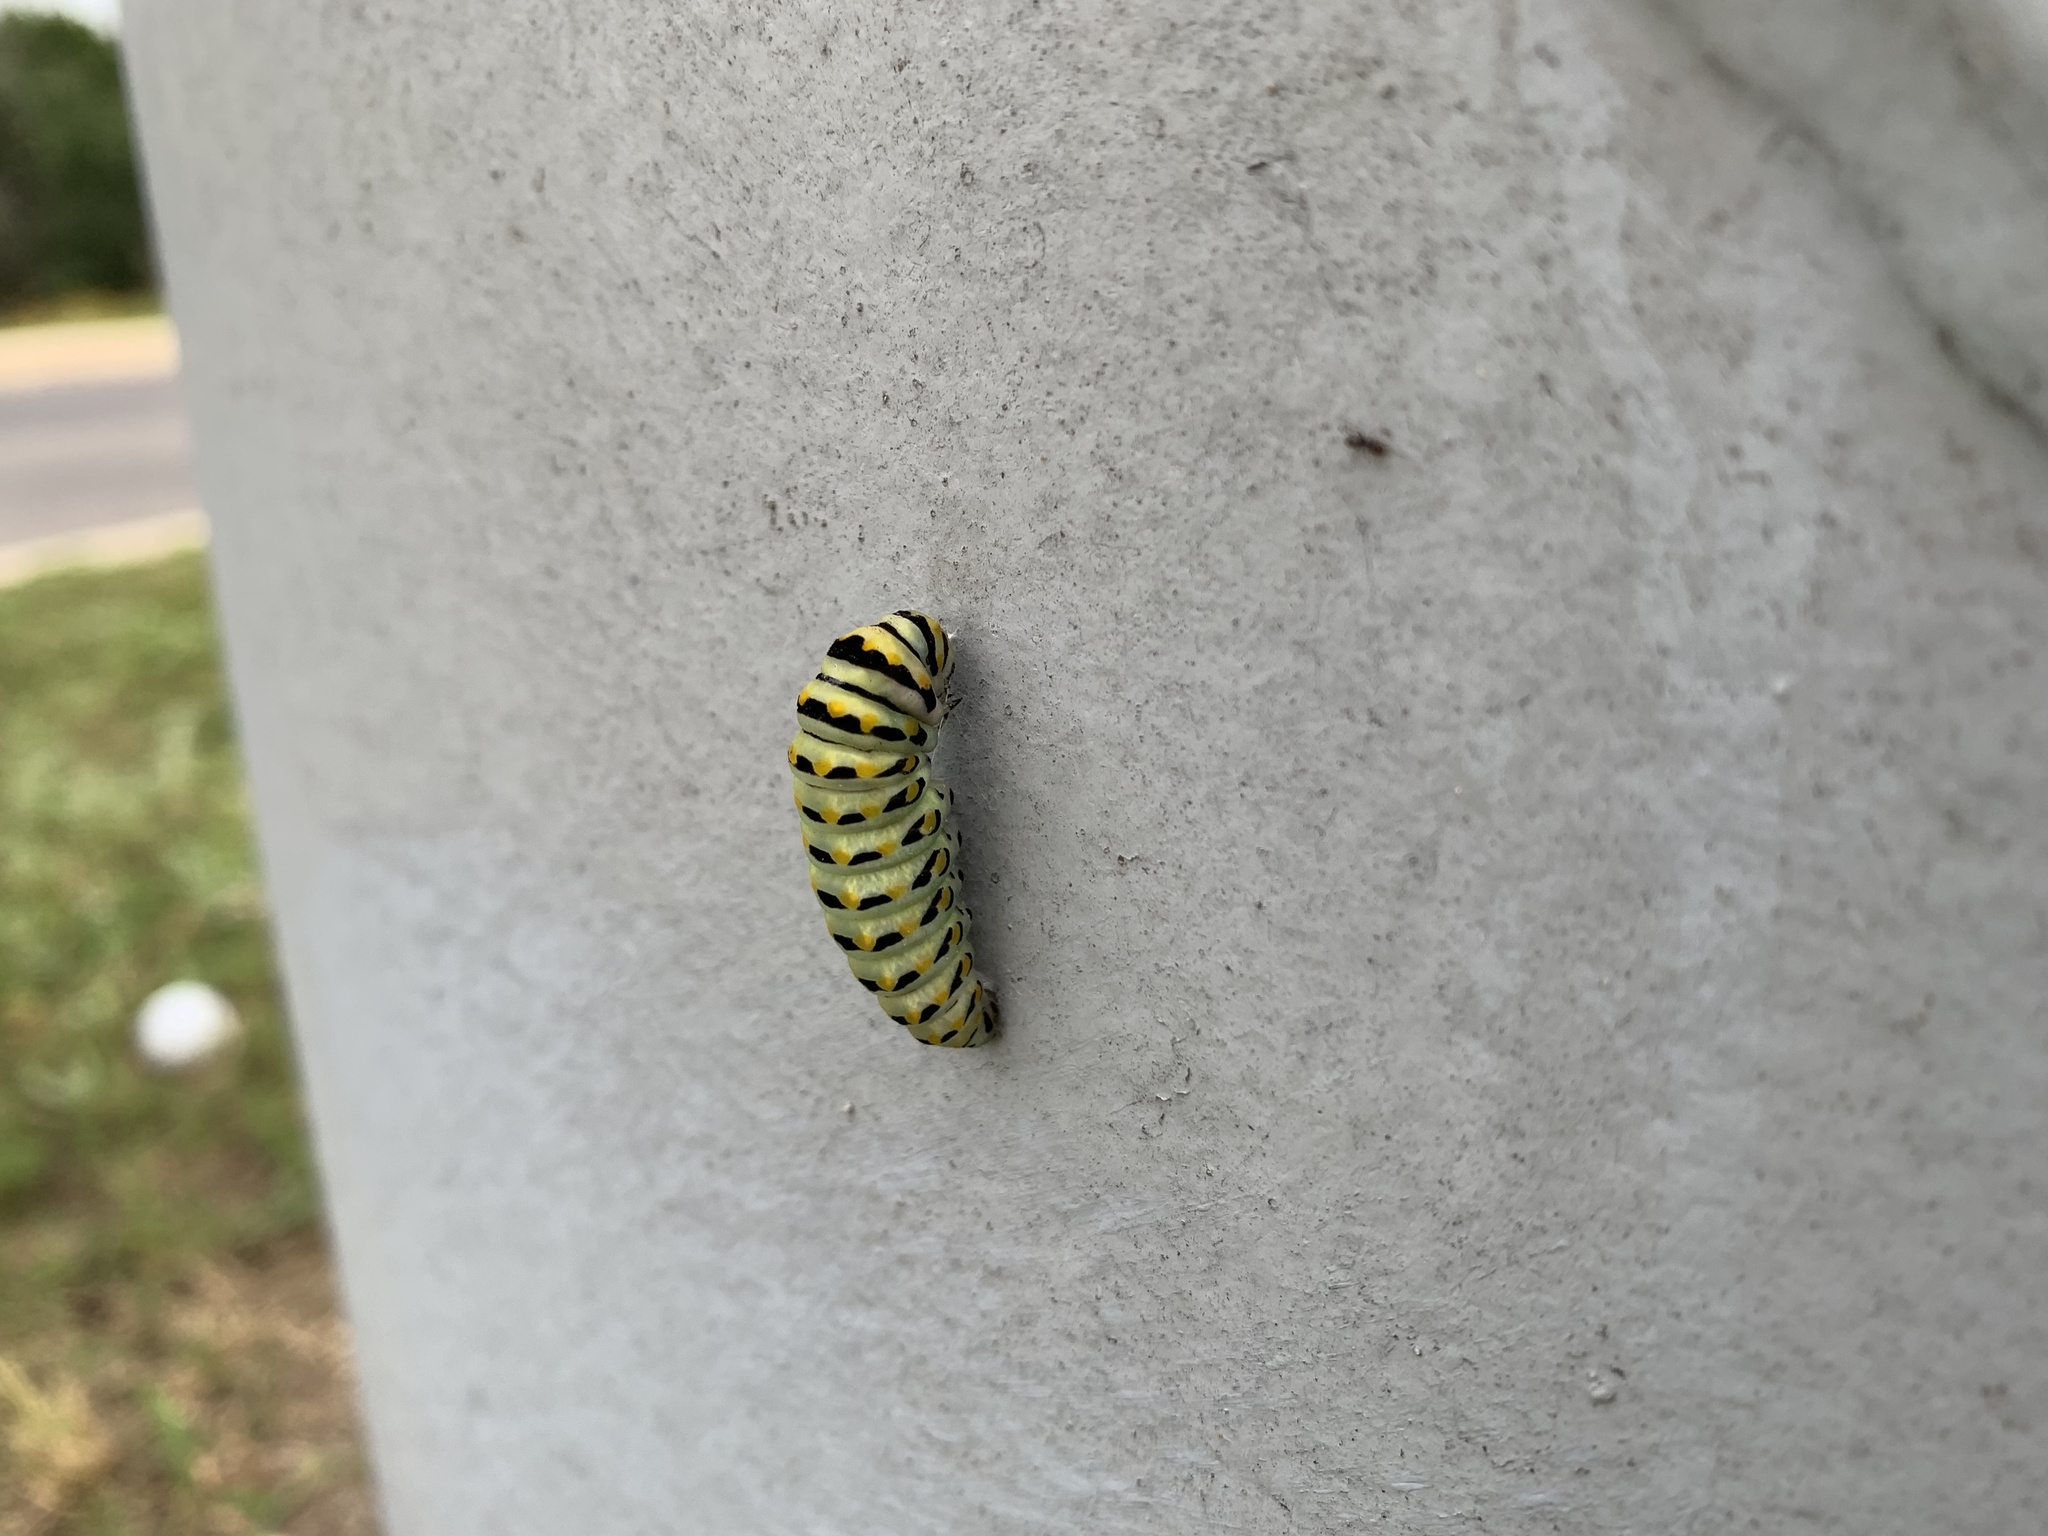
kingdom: Animalia
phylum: Arthropoda
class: Insecta
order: Lepidoptera
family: Papilionidae
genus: Papilio
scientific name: Papilio polyxenes
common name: Black swallowtail
